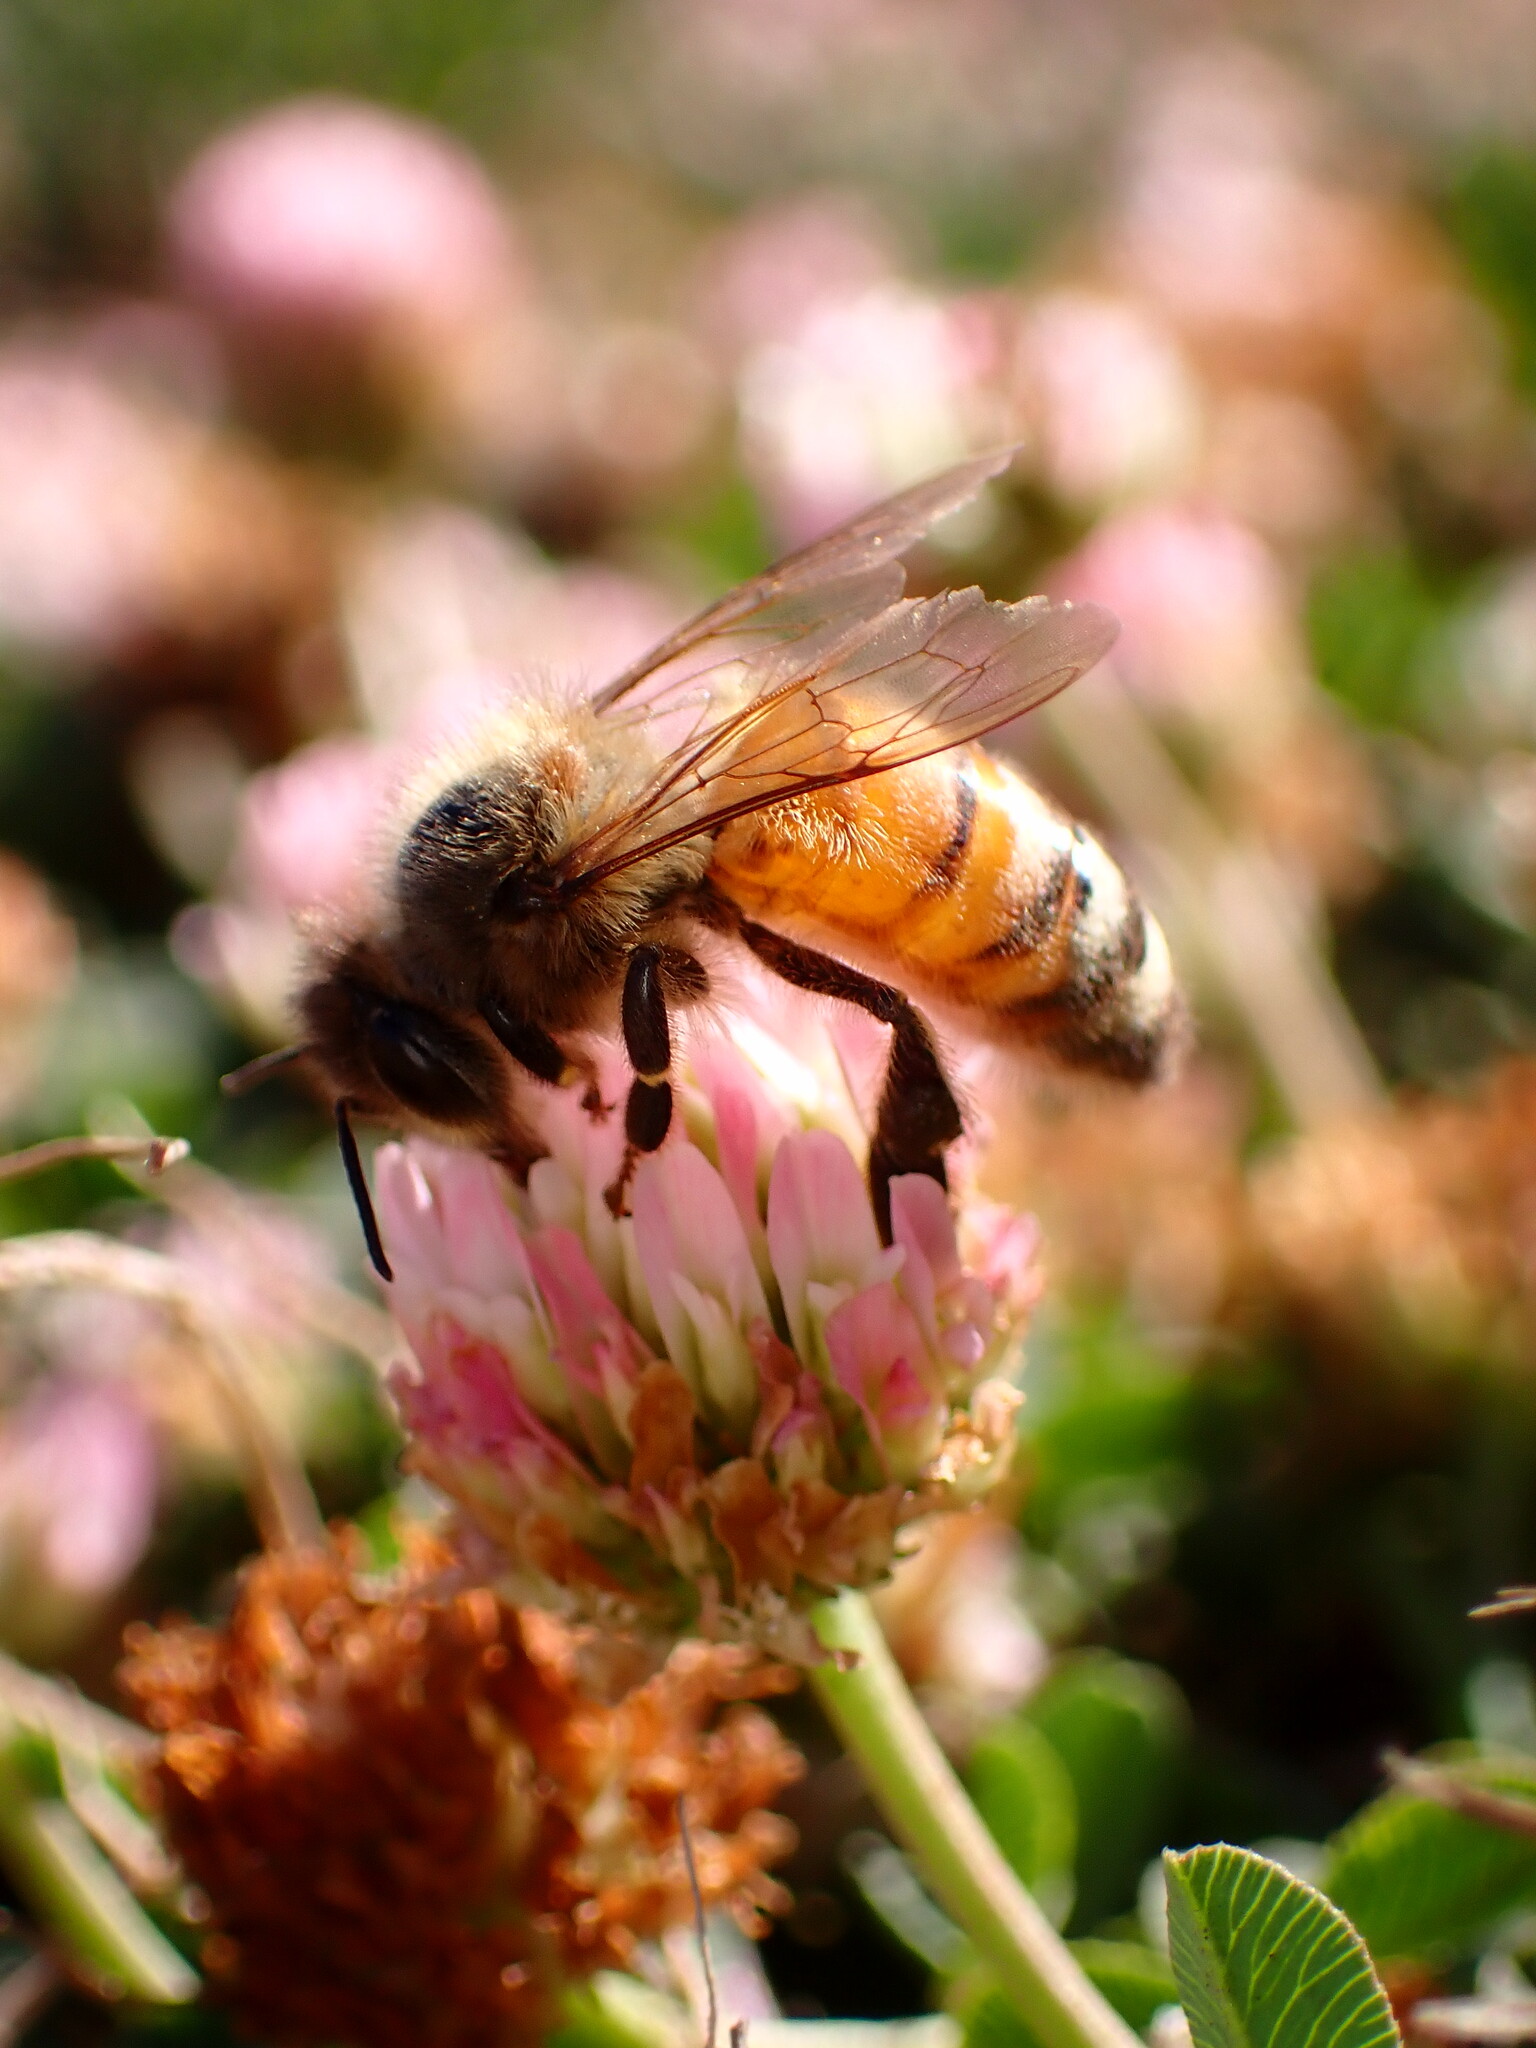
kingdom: Animalia
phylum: Arthropoda
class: Insecta
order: Hymenoptera
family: Apidae
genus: Apis
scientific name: Apis mellifera
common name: Honey bee
